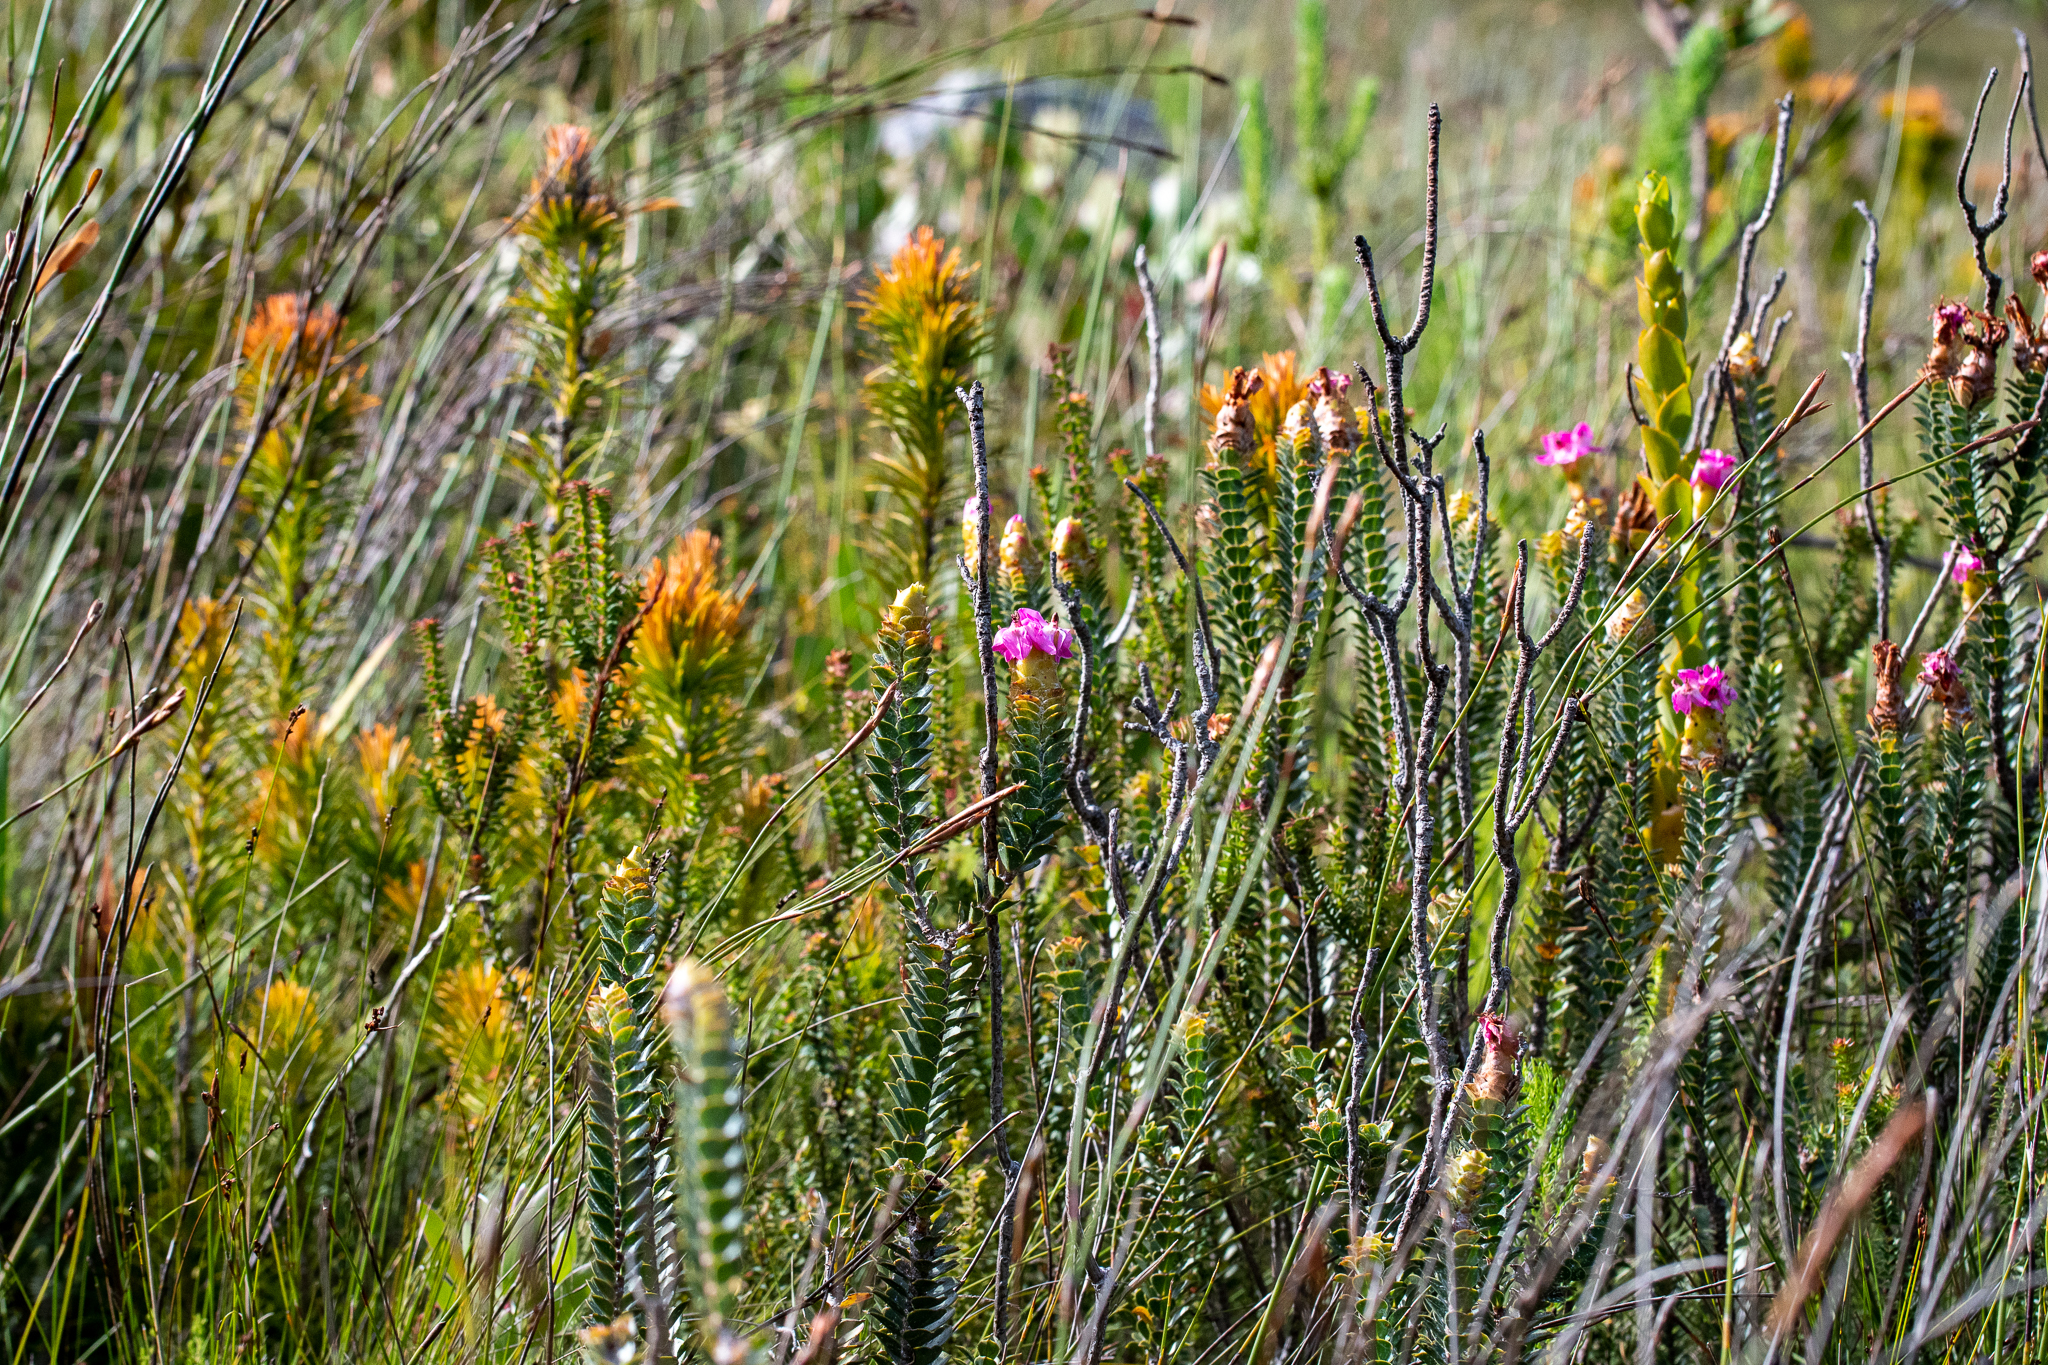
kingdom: Plantae
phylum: Tracheophyta
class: Magnoliopsida
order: Myrtales
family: Penaeaceae
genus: Saltera
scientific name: Saltera sarcocolla
